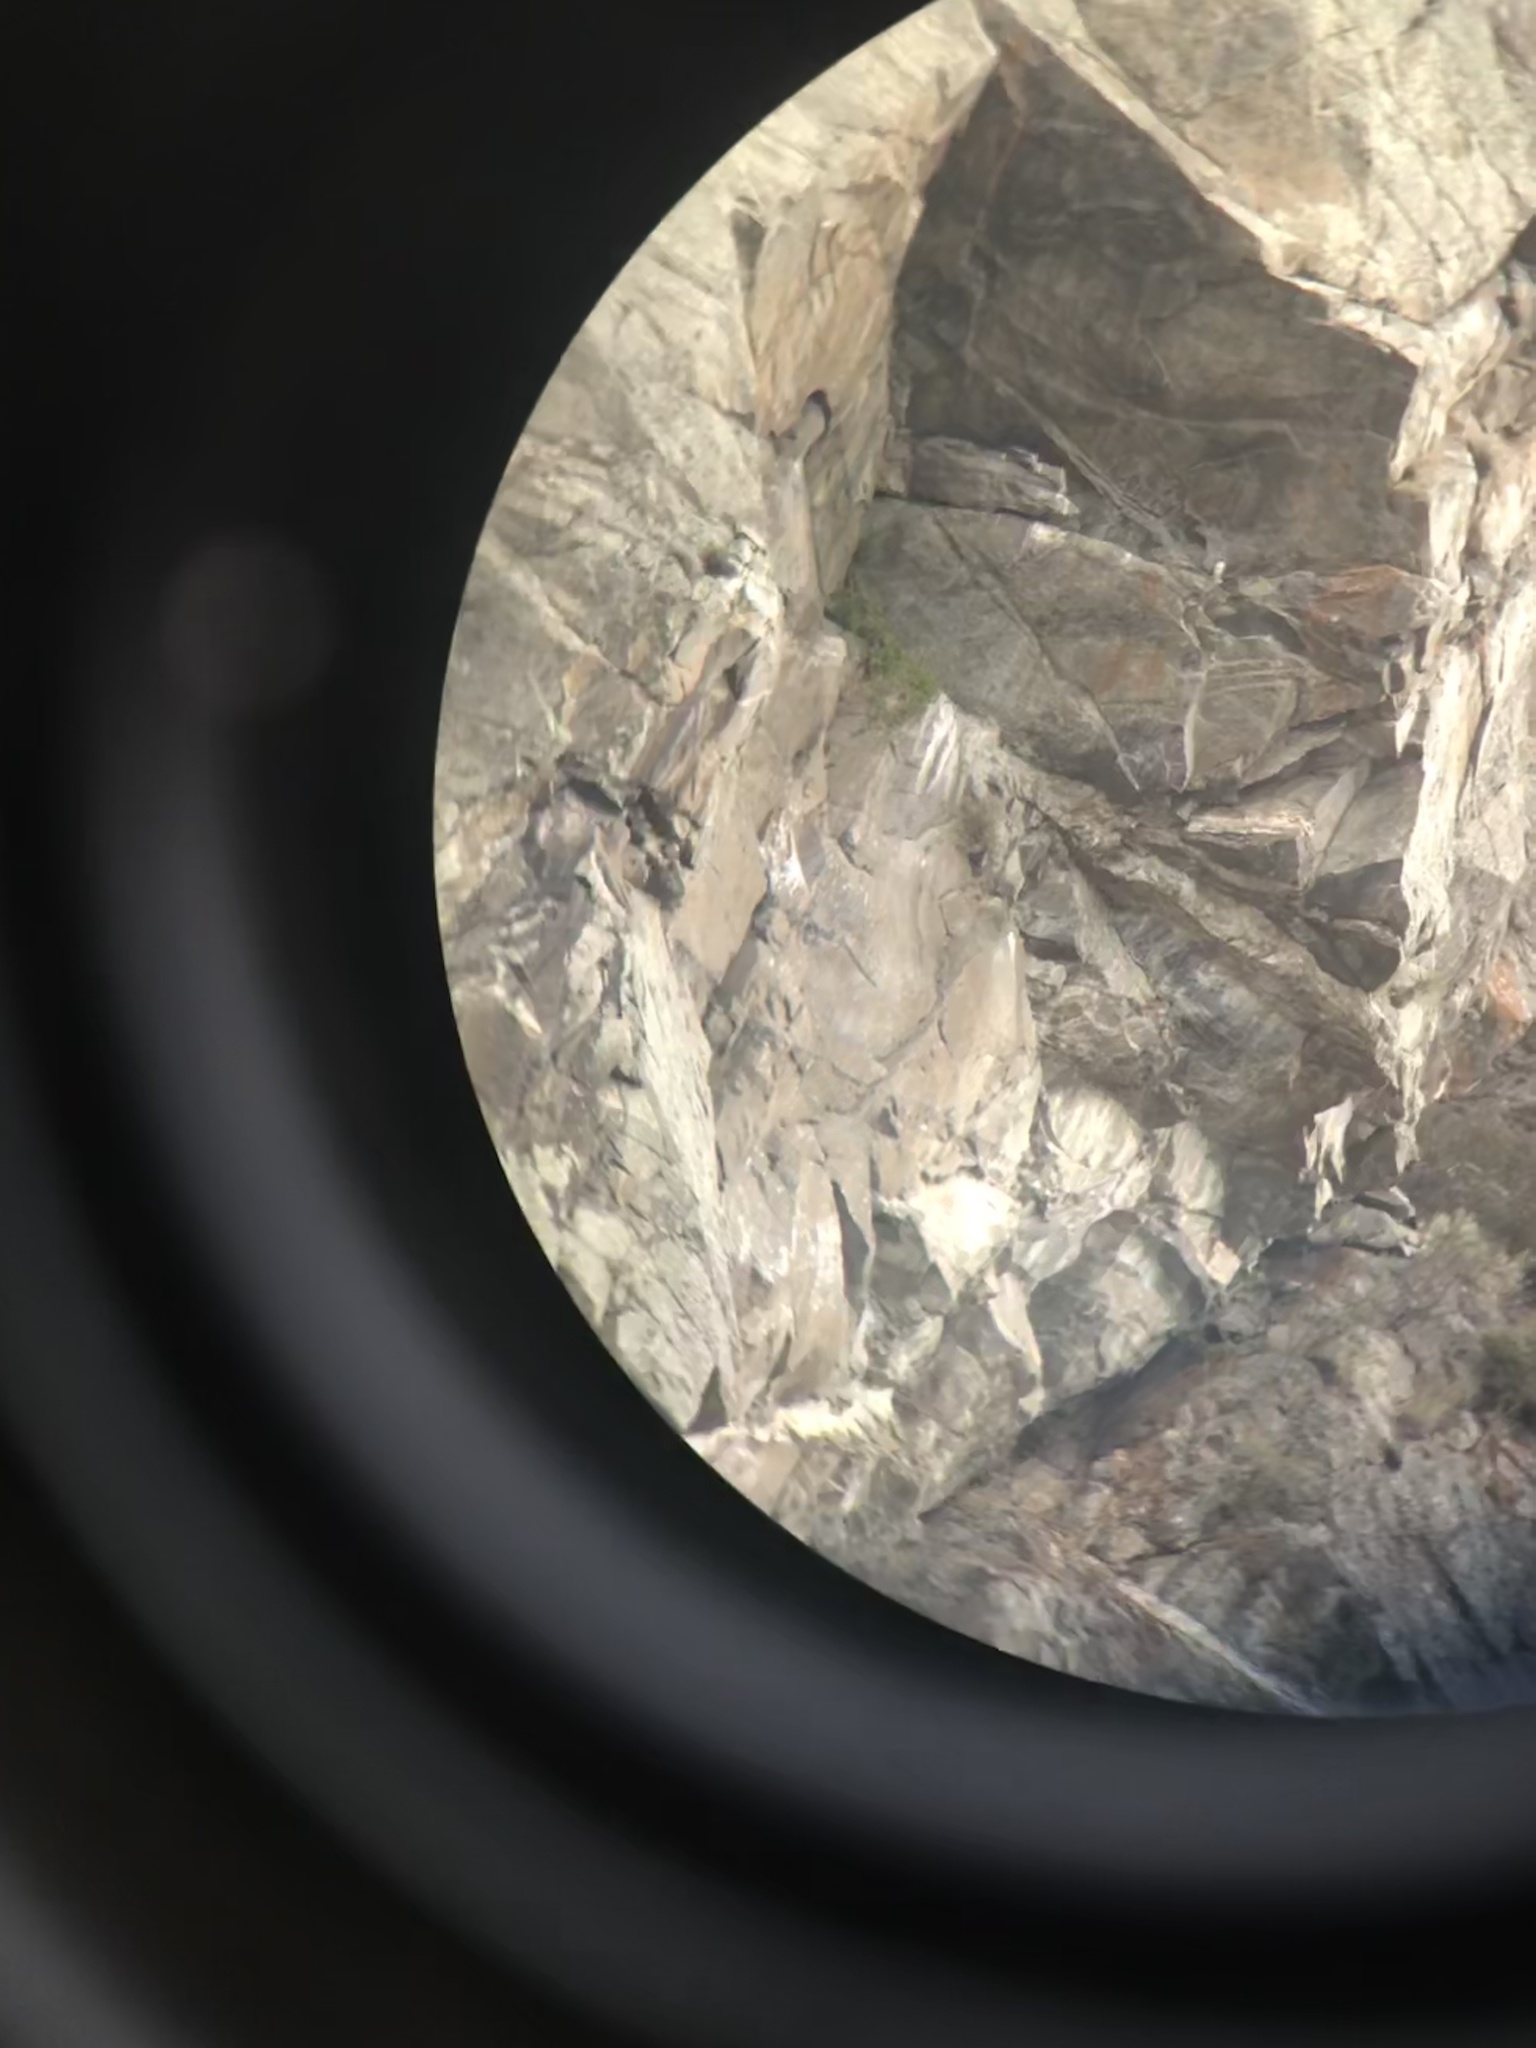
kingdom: Animalia
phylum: Chordata
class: Aves
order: Falconiformes
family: Falconidae
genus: Falco
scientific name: Falco peregrinus
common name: Peregrine falcon
